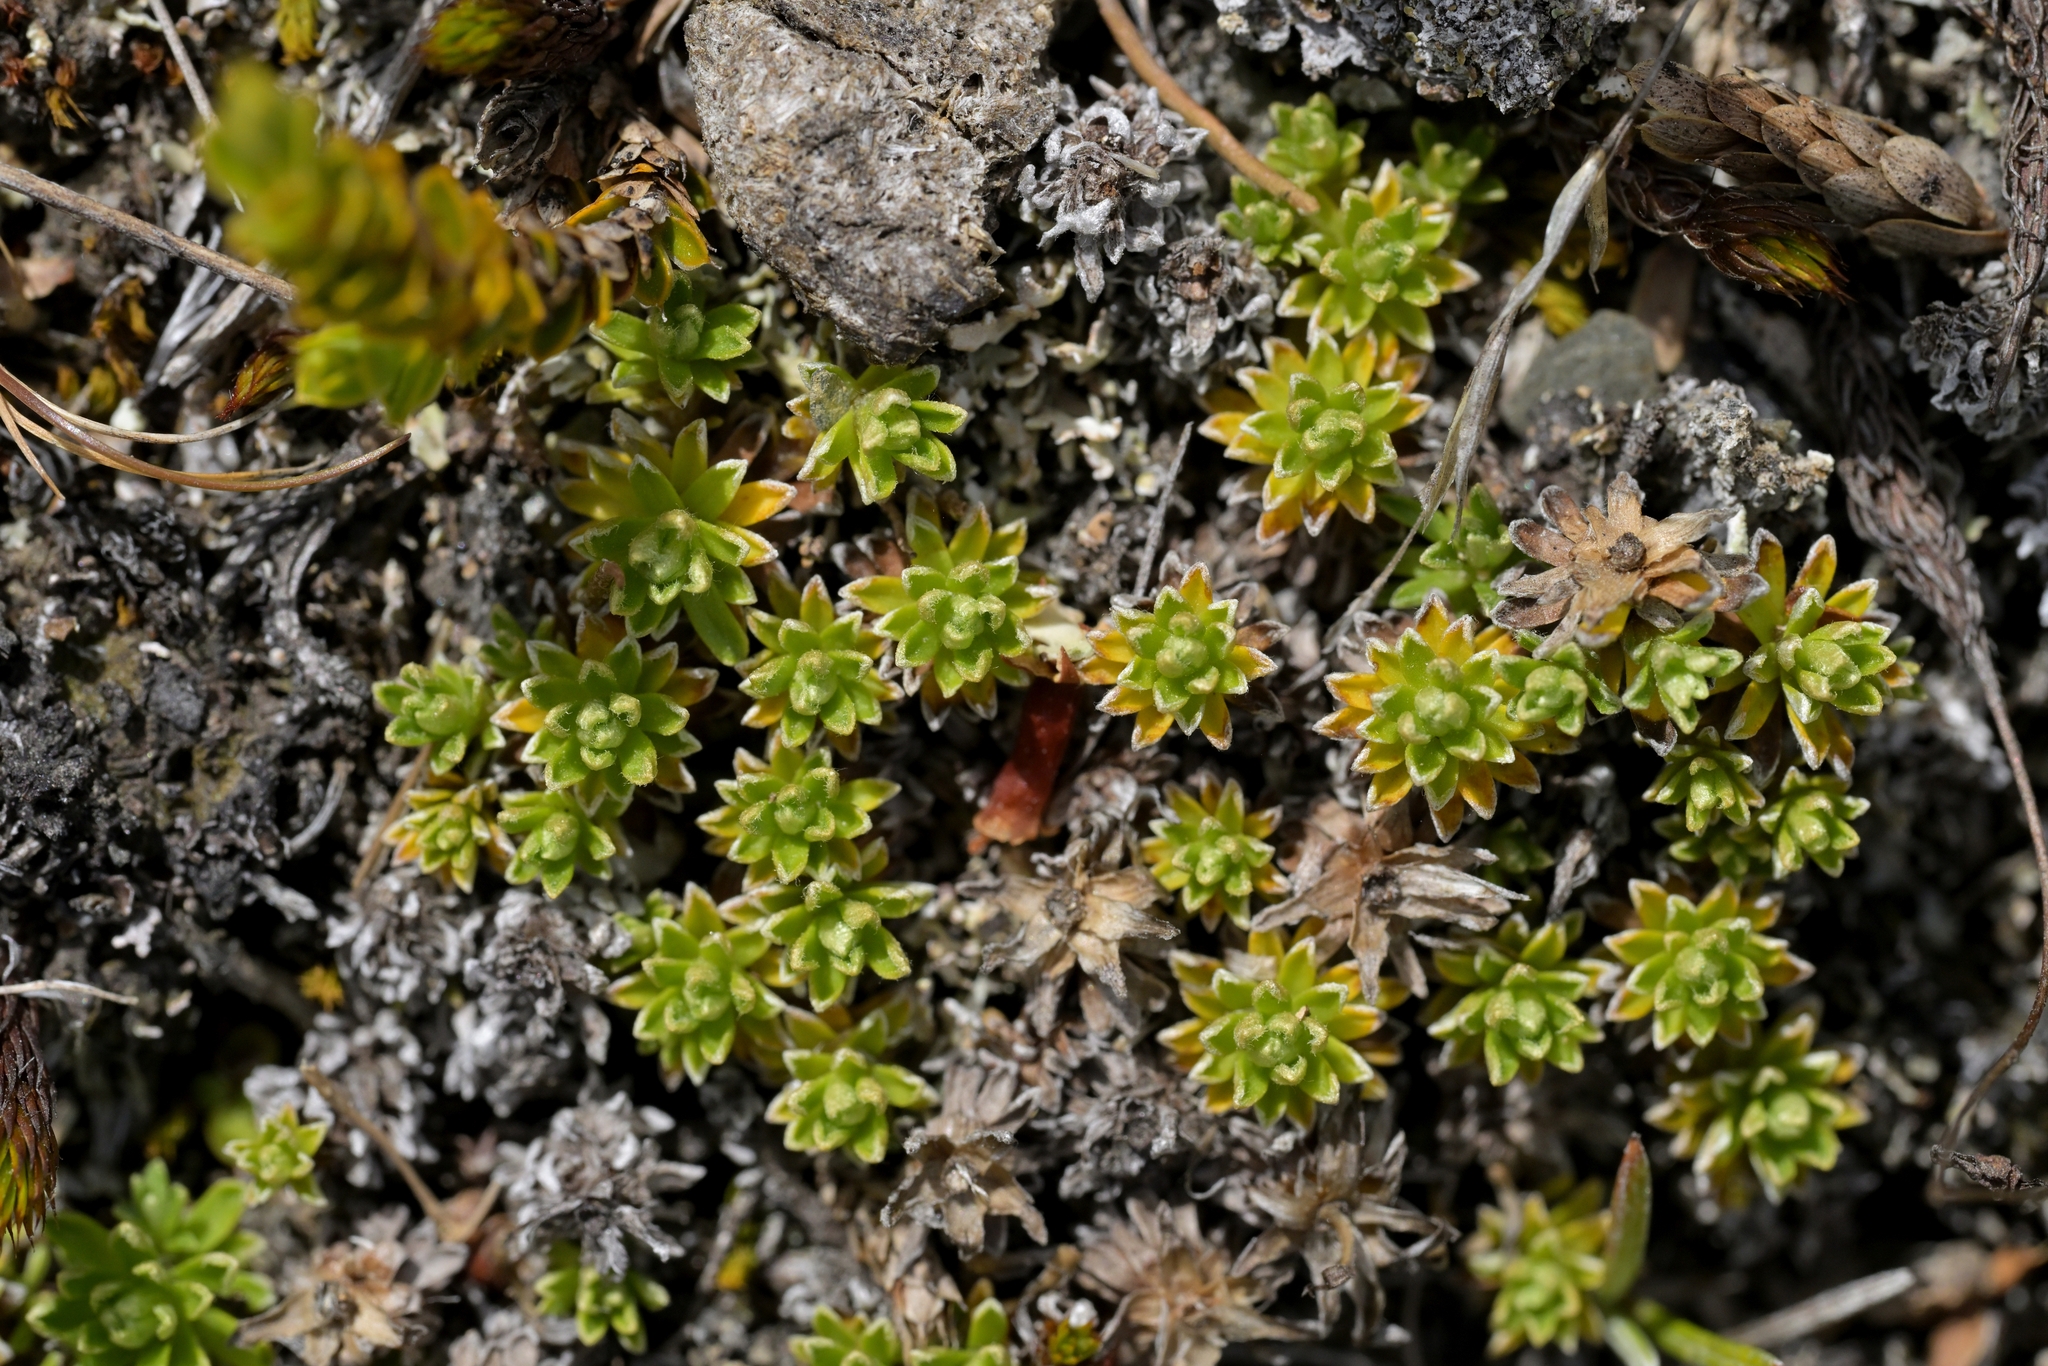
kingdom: Plantae
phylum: Tracheophyta
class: Magnoliopsida
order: Asterales
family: Asteraceae
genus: Raoulia
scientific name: Raoulia subsericea
